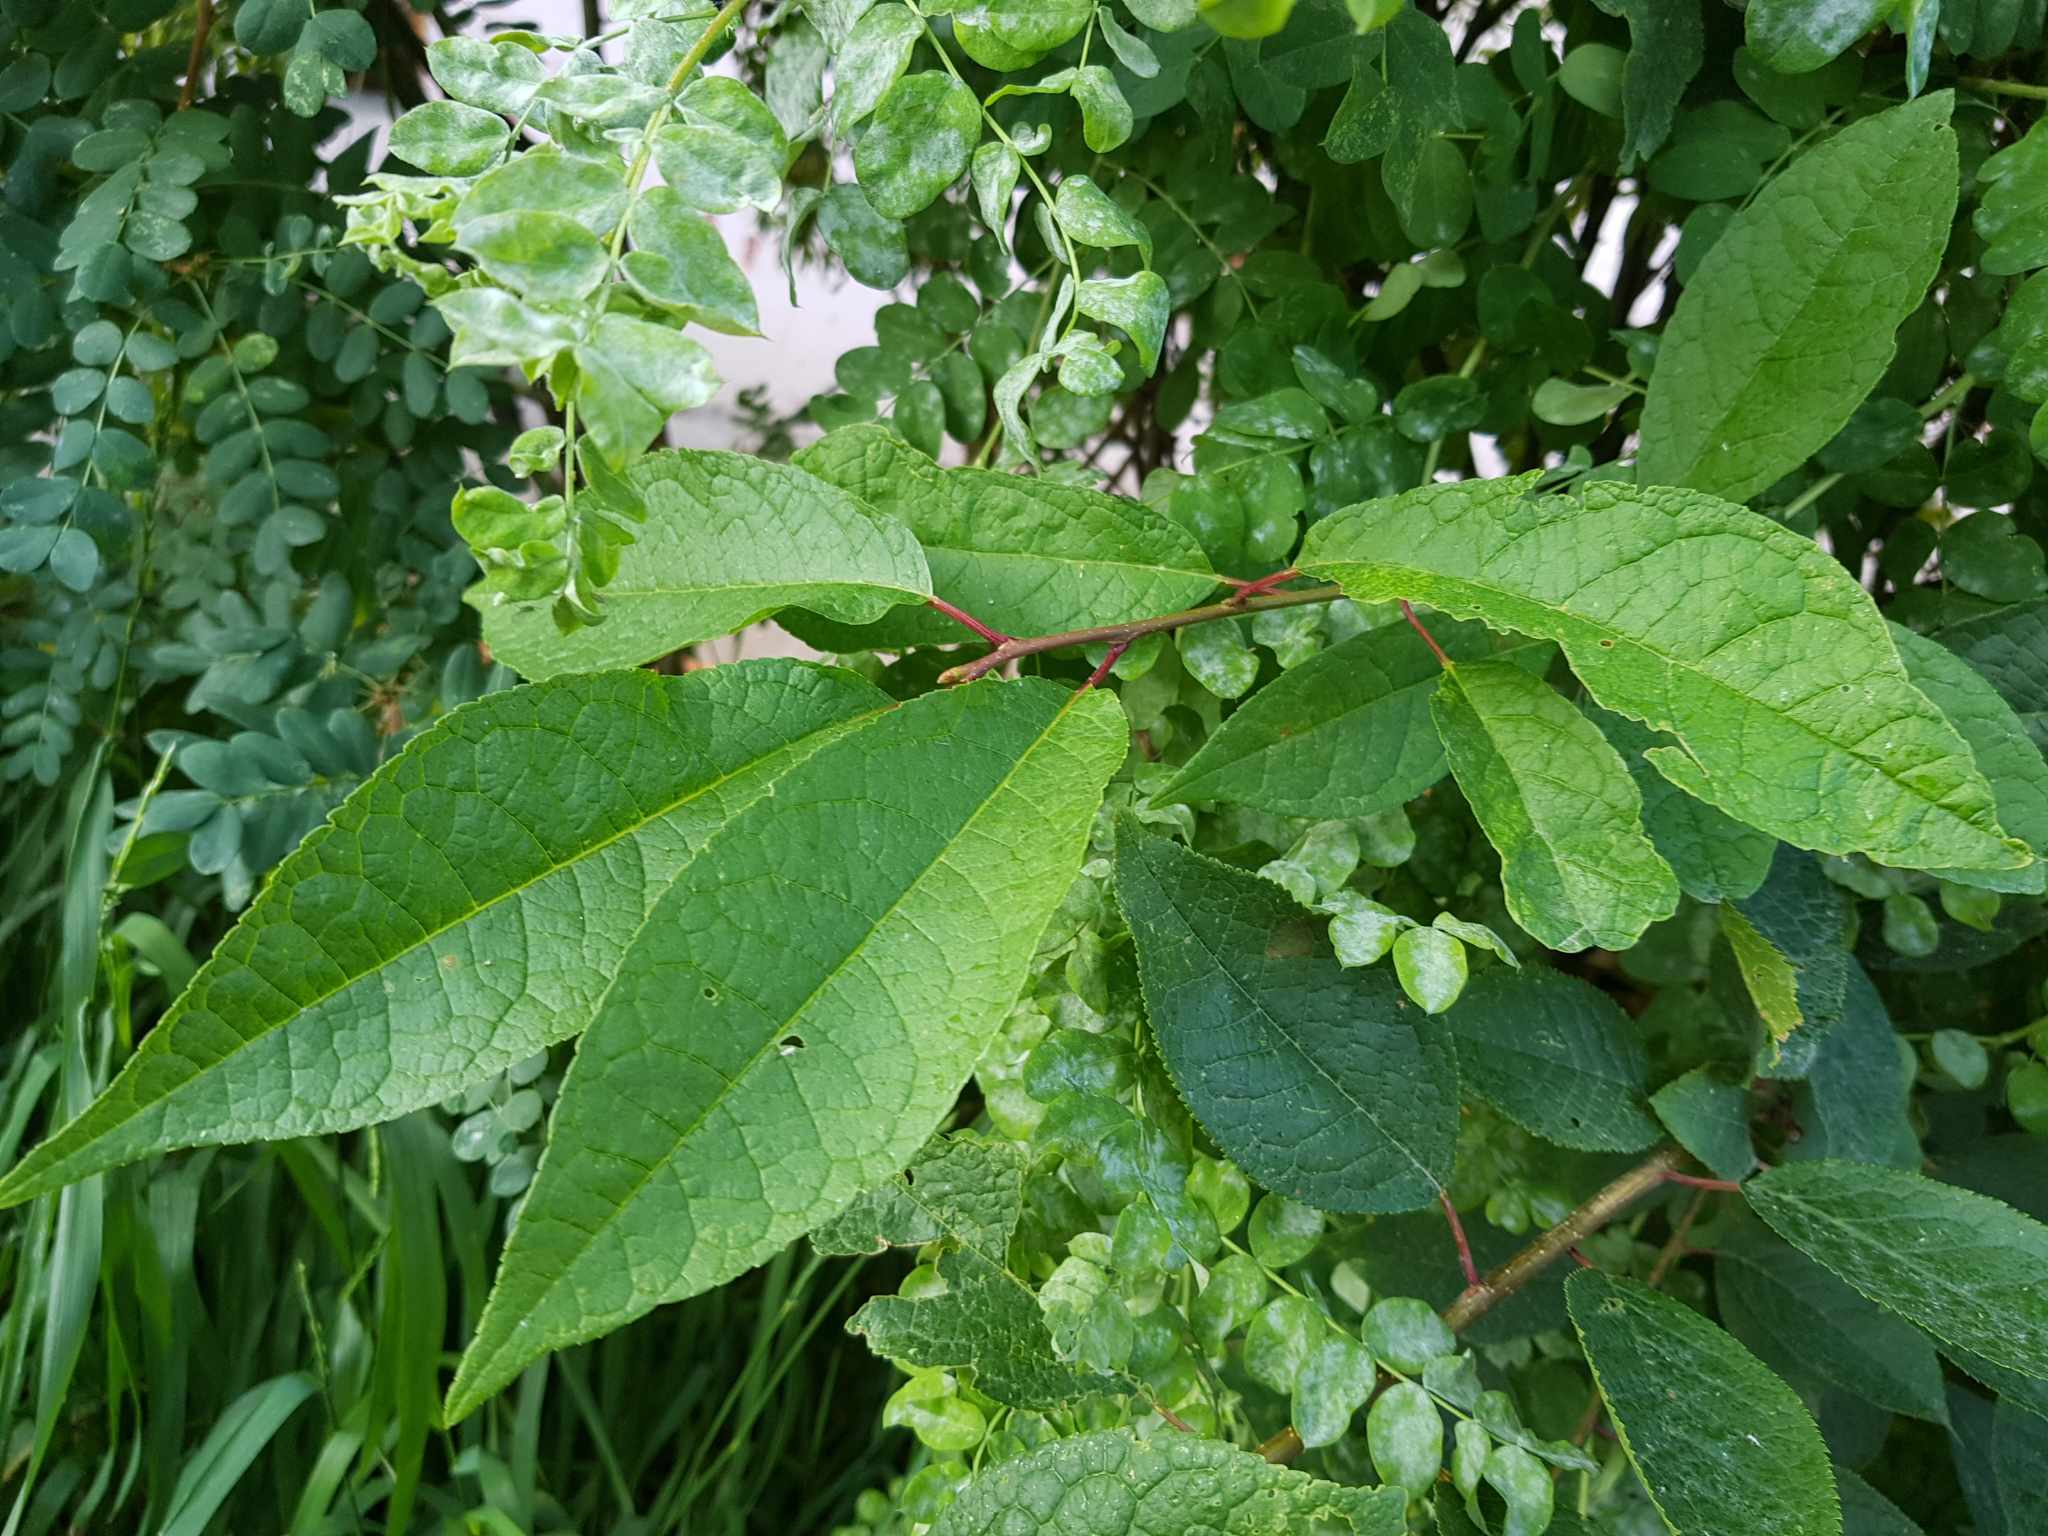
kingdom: Plantae
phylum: Tracheophyta
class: Magnoliopsida
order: Rosales
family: Rosaceae
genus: Prunus
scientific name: Prunus padus
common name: Bird cherry
